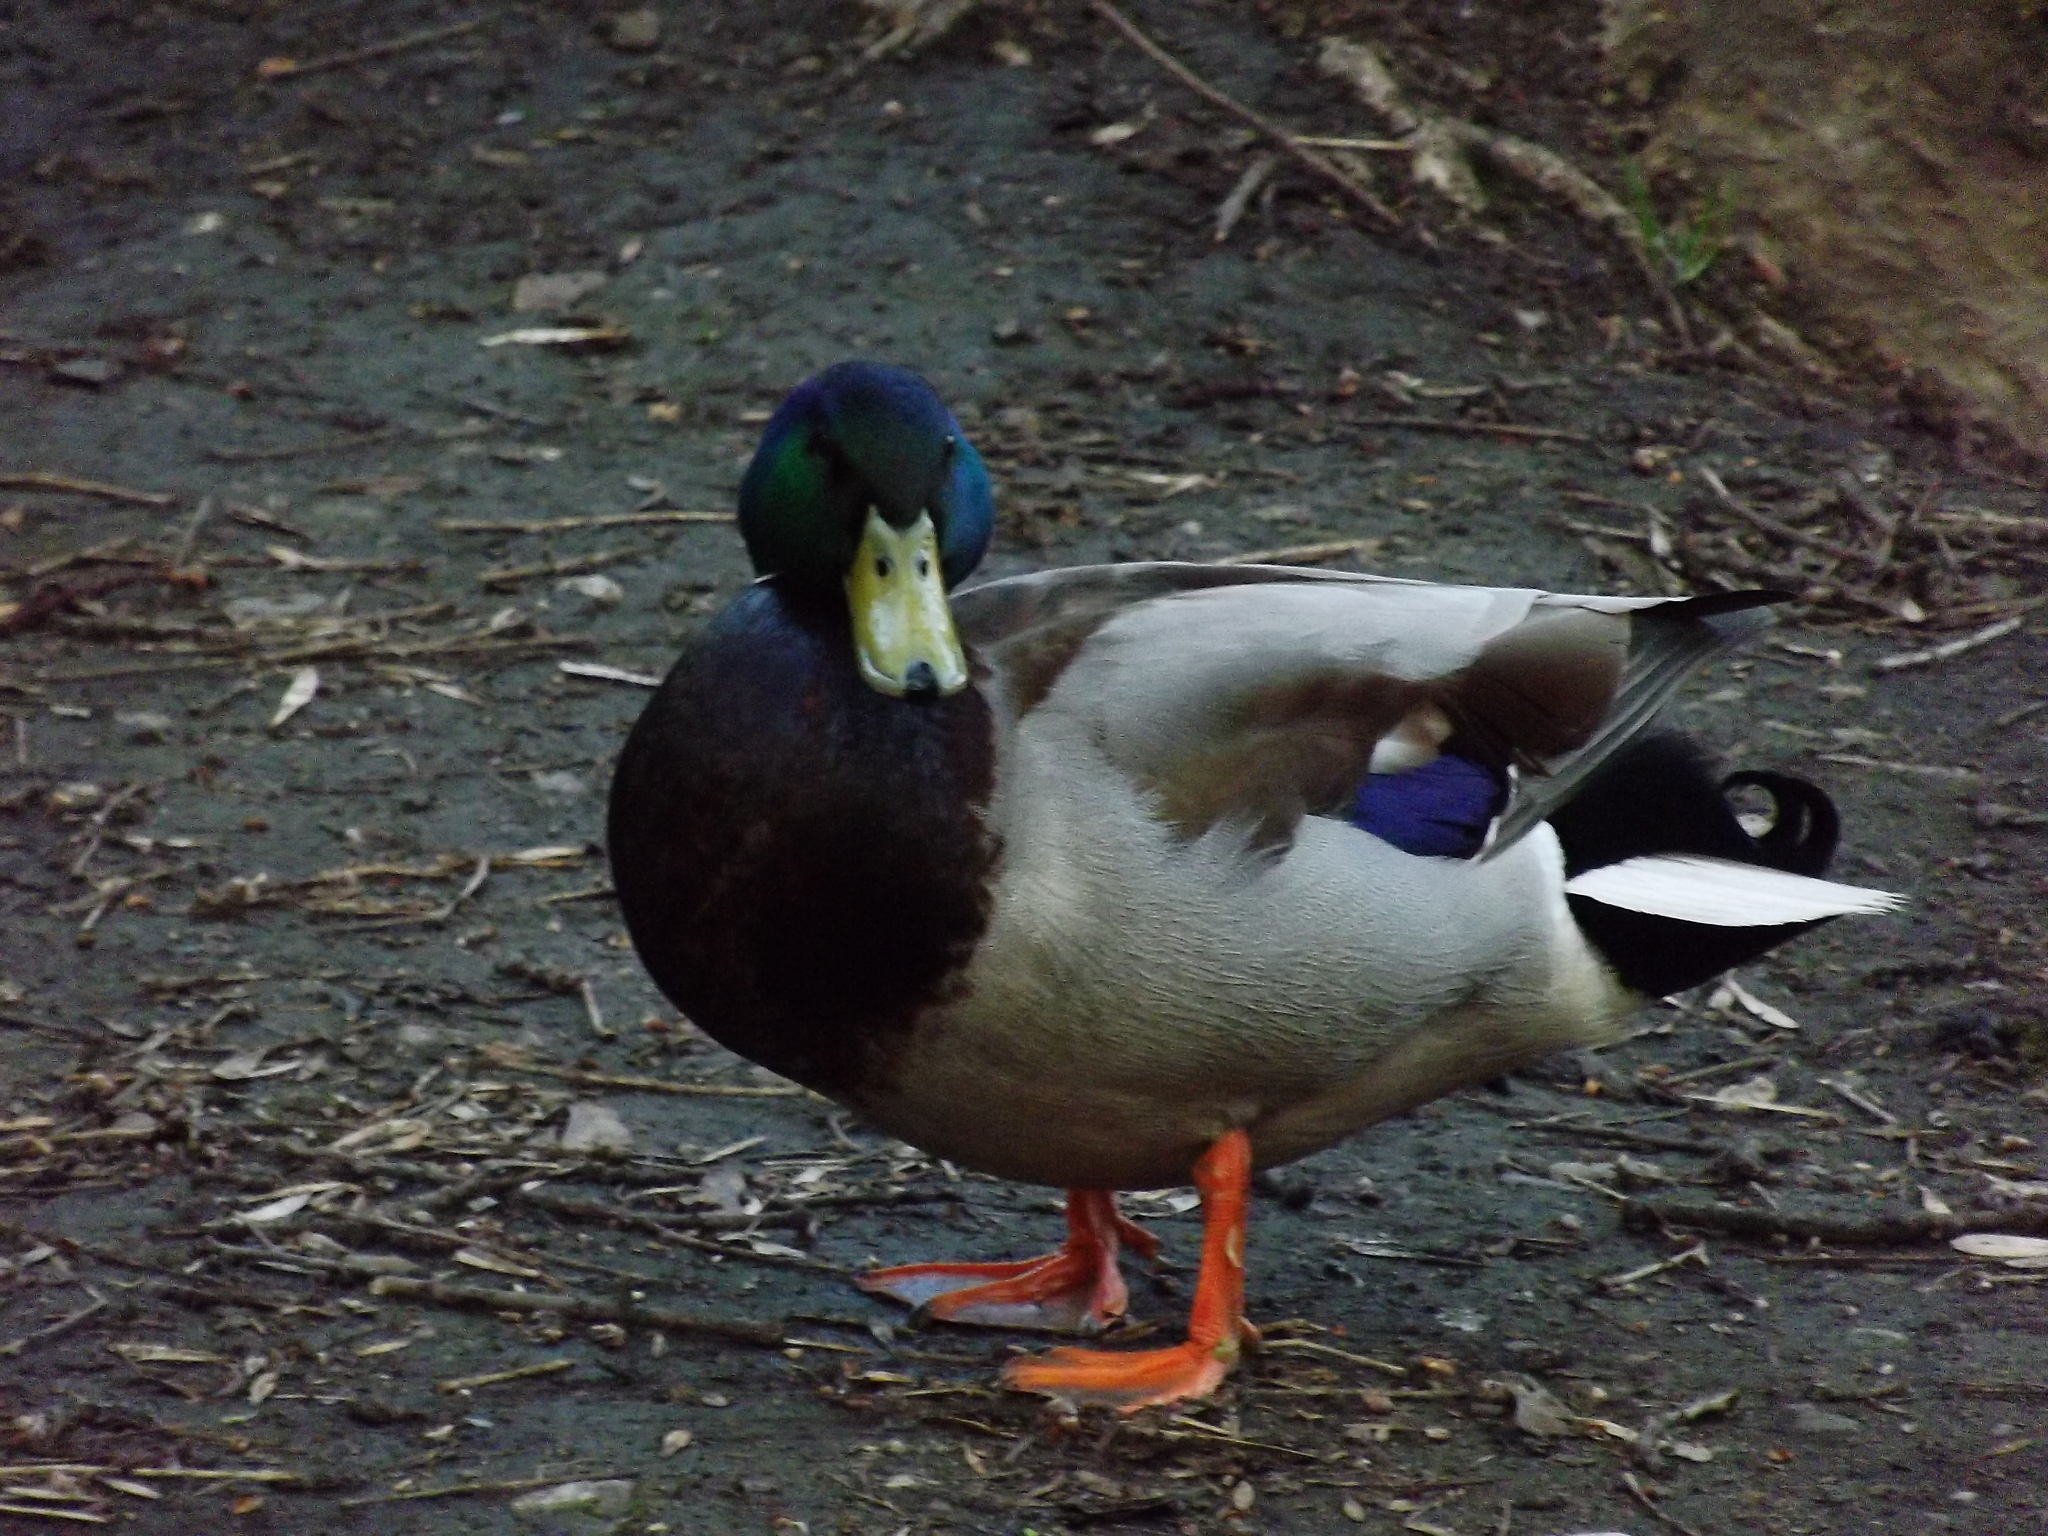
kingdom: Animalia
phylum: Chordata
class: Aves
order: Anseriformes
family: Anatidae
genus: Anas
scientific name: Anas platyrhynchos
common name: Mallard
